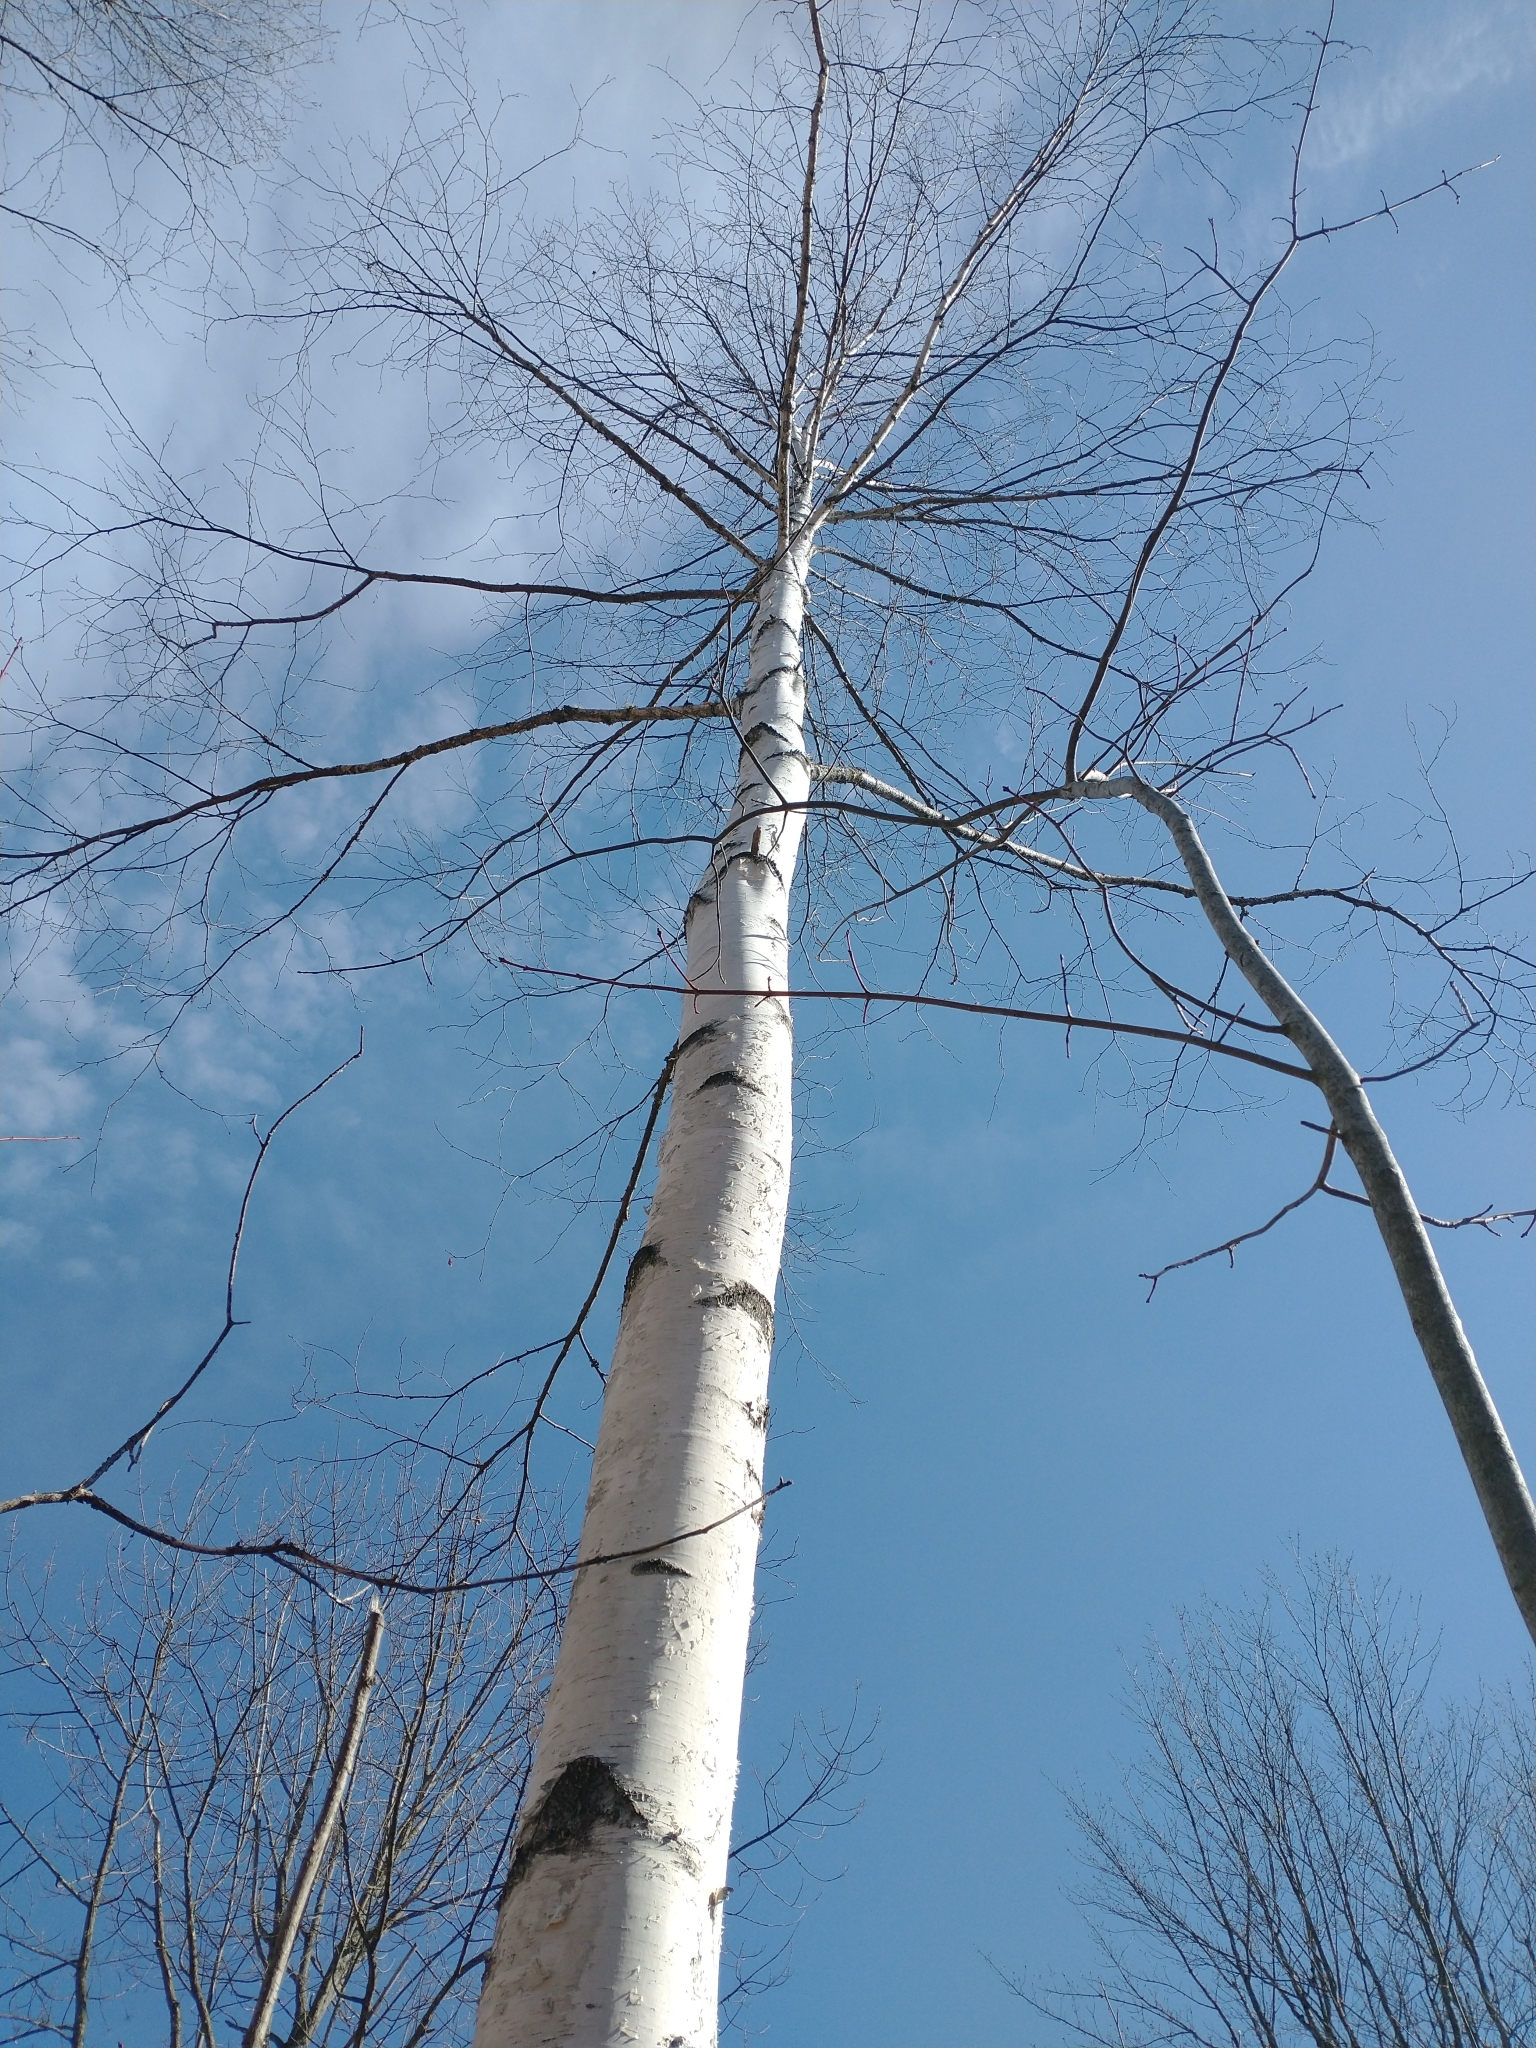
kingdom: Plantae
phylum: Tracheophyta
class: Magnoliopsida
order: Fagales
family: Betulaceae
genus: Betula
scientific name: Betula papyrifera
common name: Paper birch
